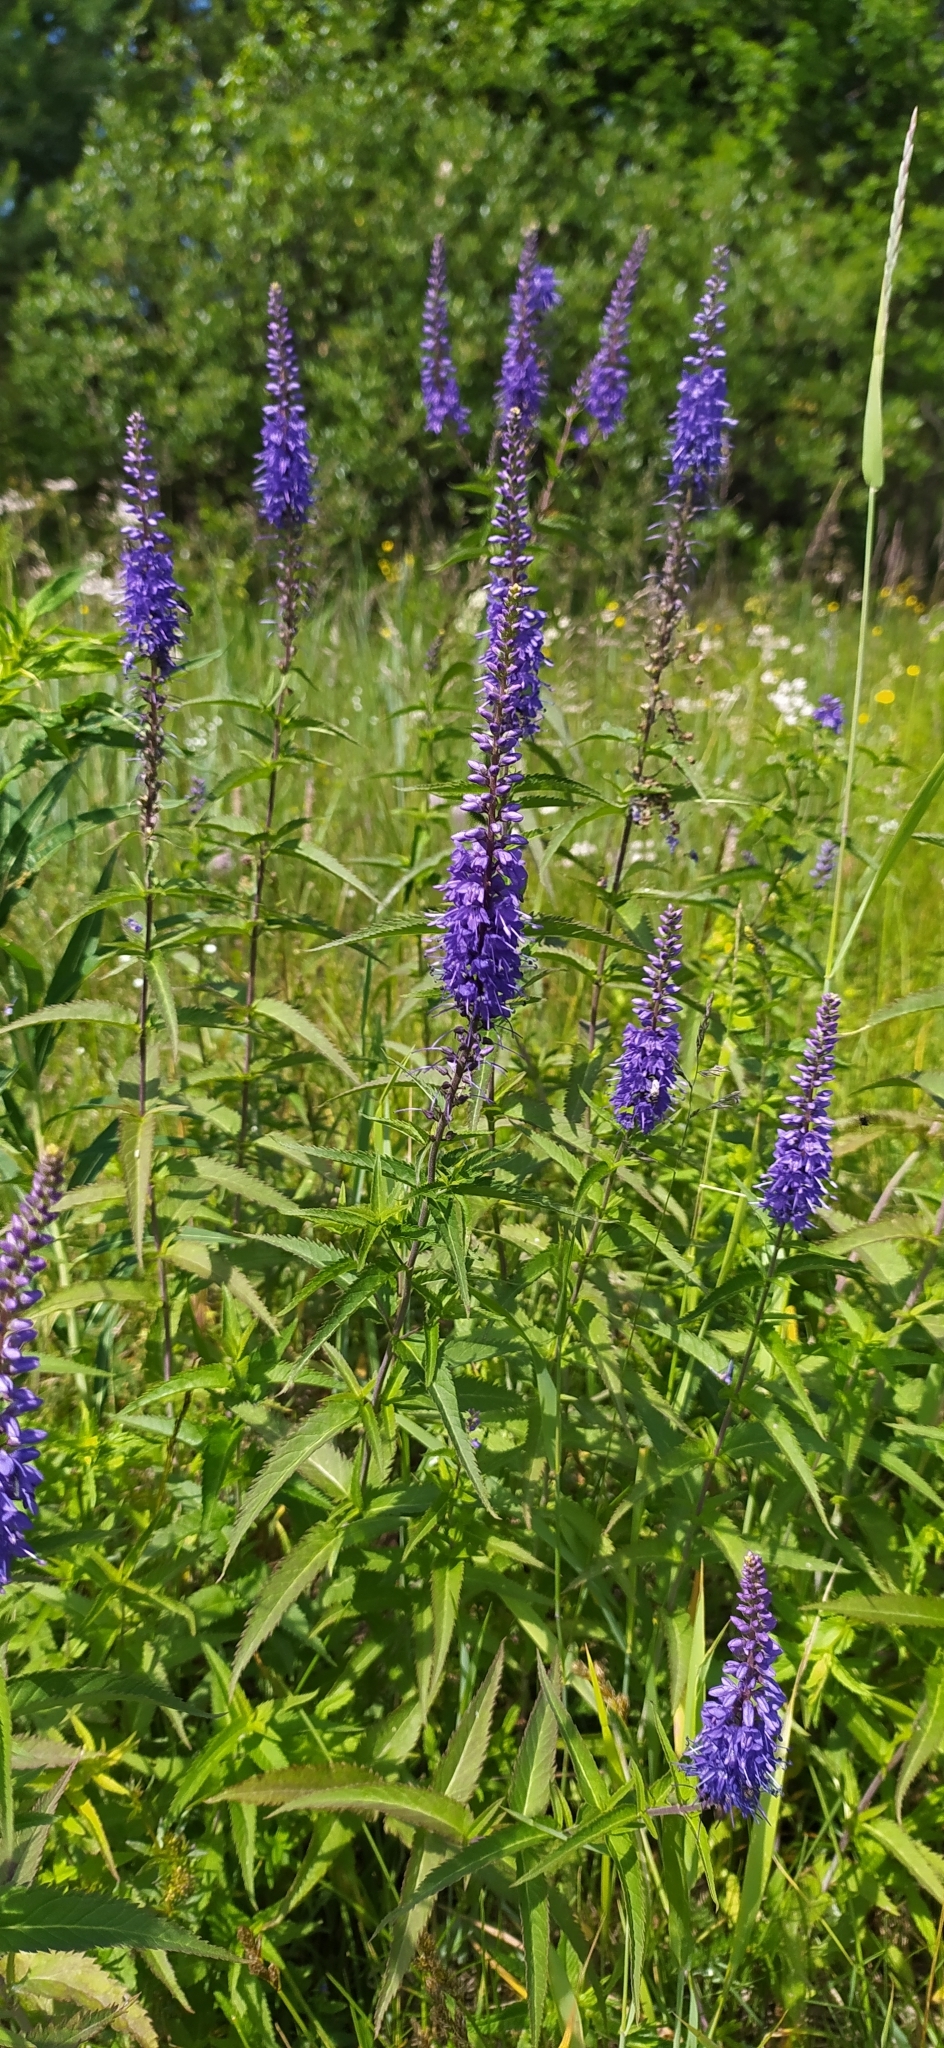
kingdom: Plantae
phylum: Tracheophyta
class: Magnoliopsida
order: Lamiales
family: Plantaginaceae
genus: Veronica
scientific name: Veronica longifolia
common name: Garden speedwell
